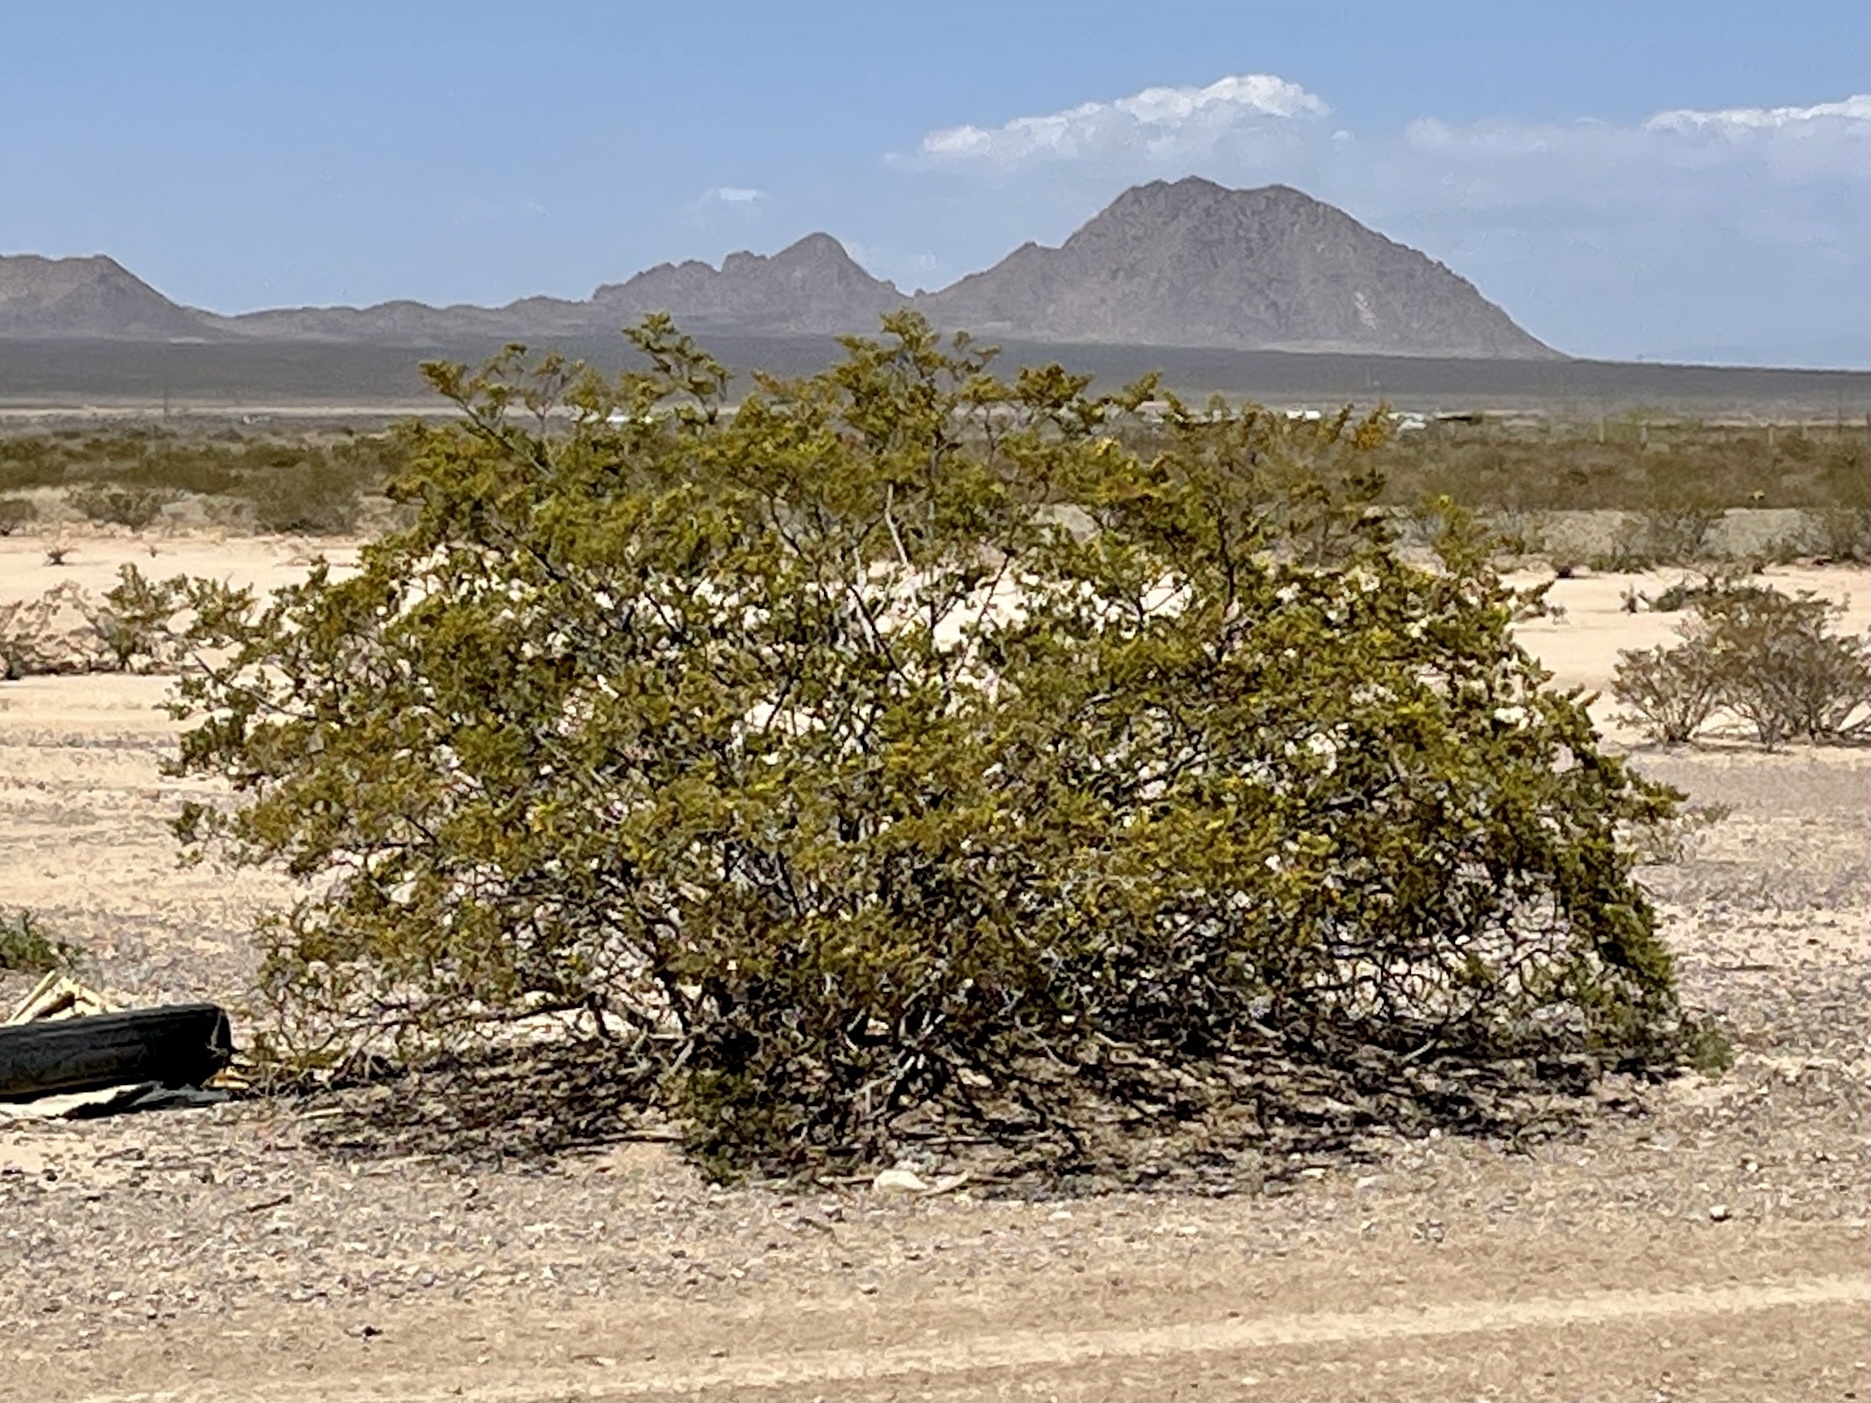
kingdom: Plantae
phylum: Tracheophyta
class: Magnoliopsida
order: Zygophyllales
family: Zygophyllaceae
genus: Larrea
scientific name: Larrea tridentata
